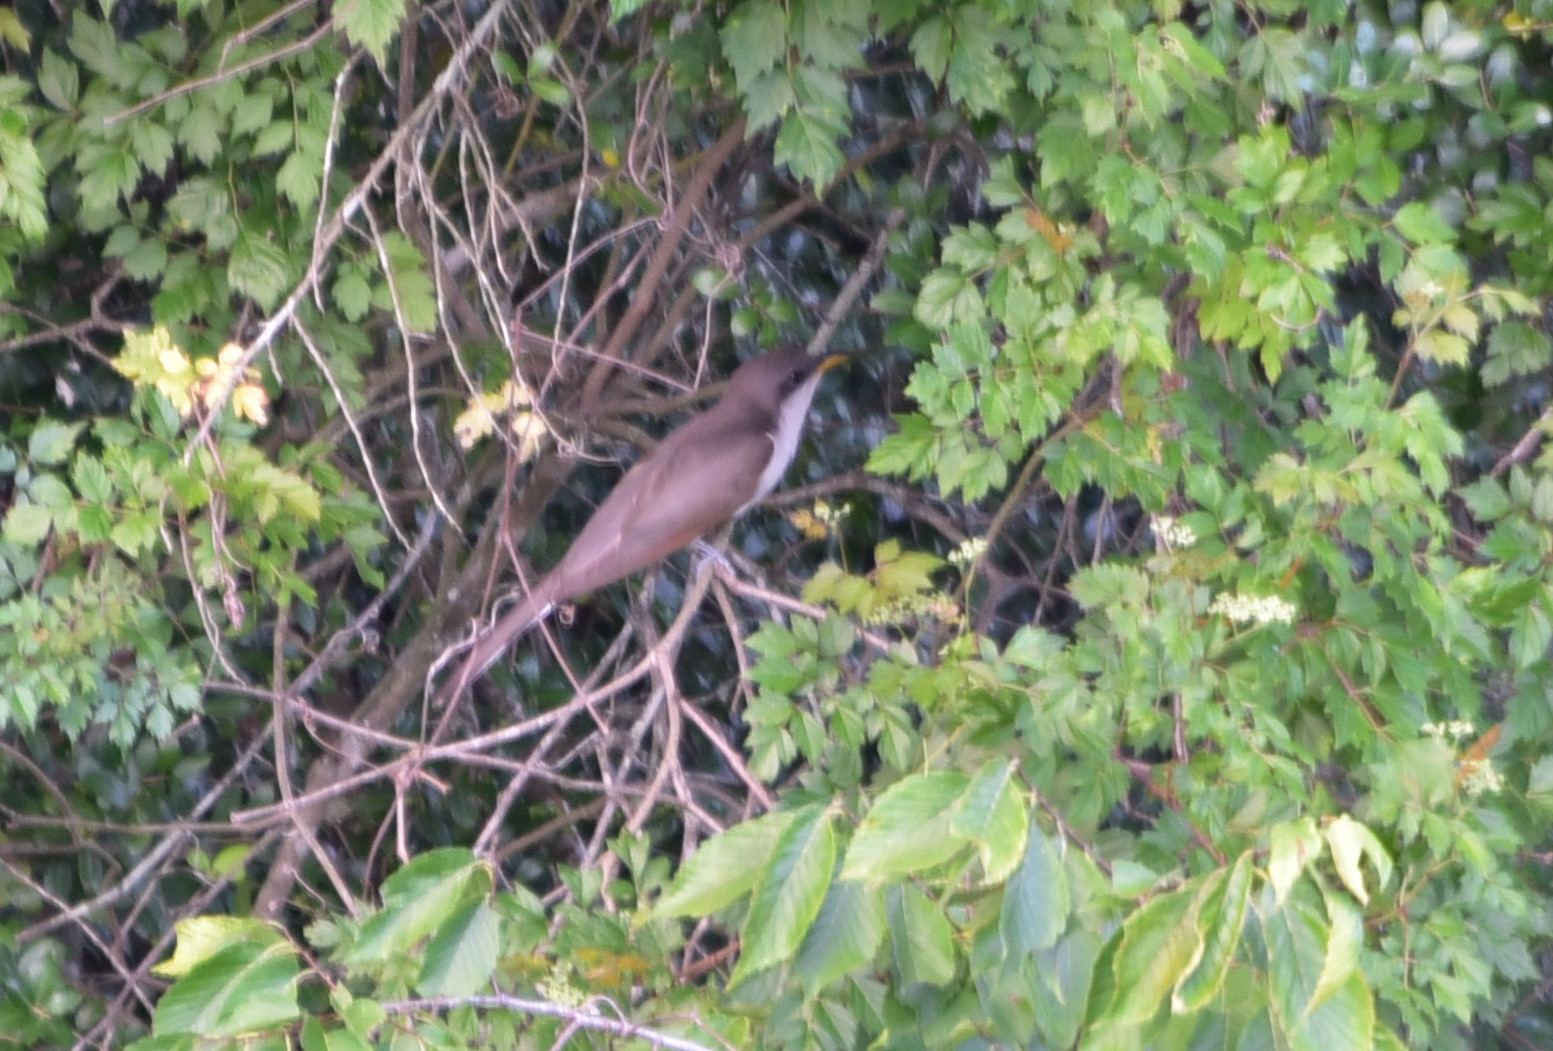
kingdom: Animalia
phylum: Chordata
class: Aves
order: Cuculiformes
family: Cuculidae
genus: Coccyzus
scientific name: Coccyzus americanus
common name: Yellow-billed cuckoo
